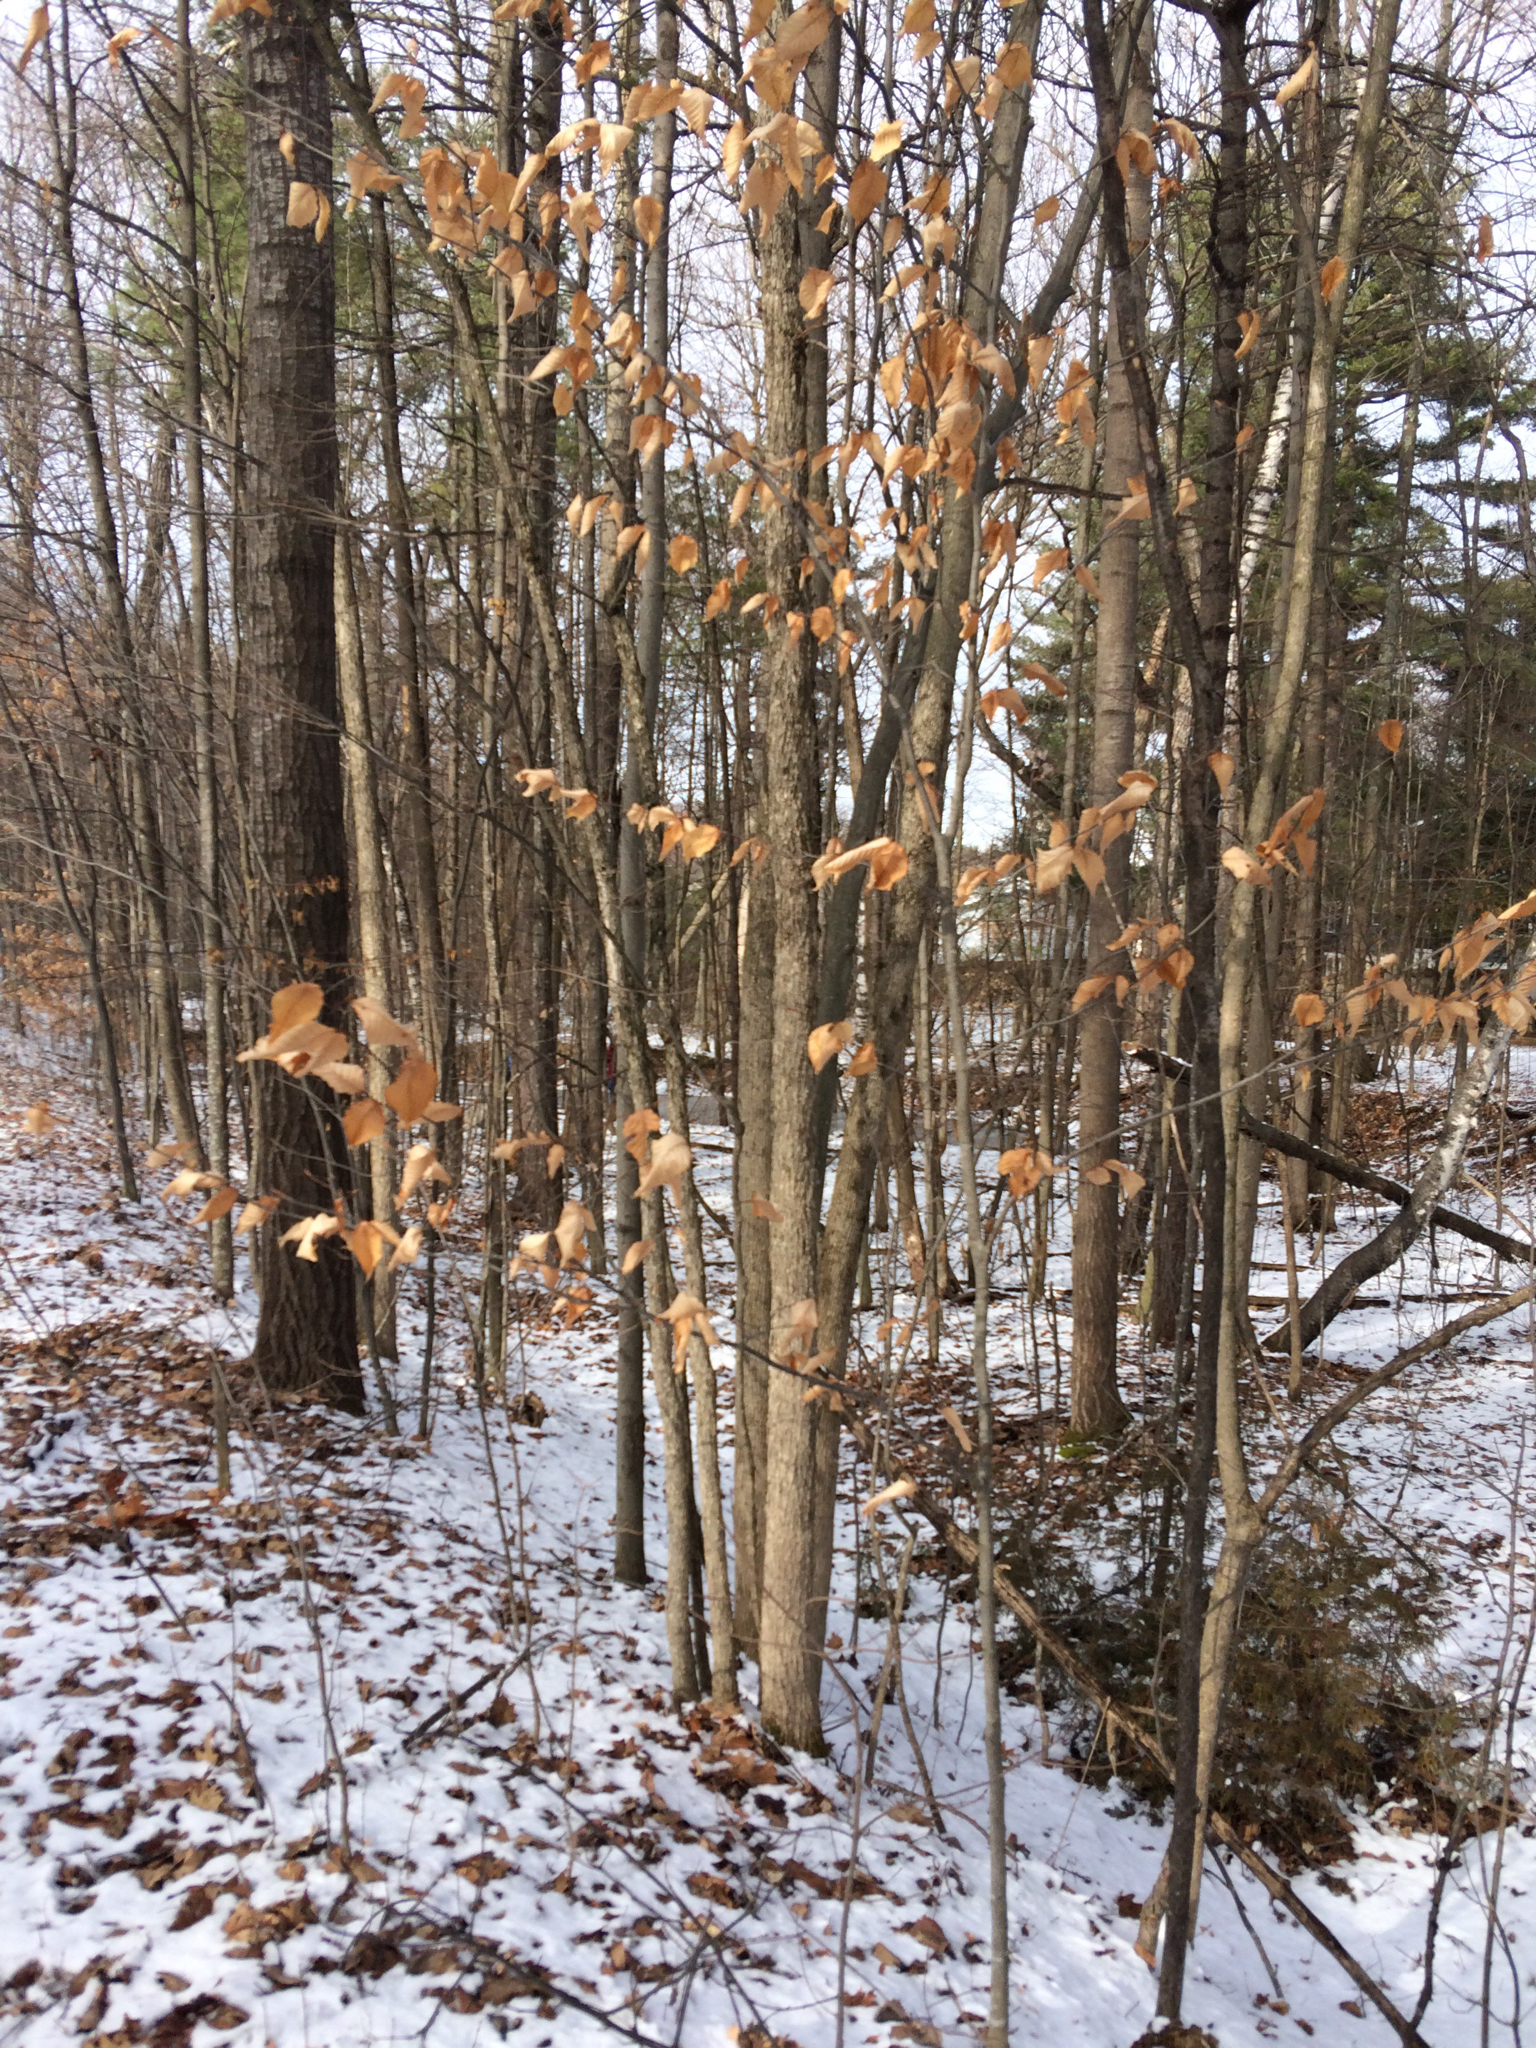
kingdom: Plantae
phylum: Tracheophyta
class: Magnoliopsida
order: Fagales
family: Fagaceae
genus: Fagus
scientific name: Fagus grandifolia
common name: American beech
